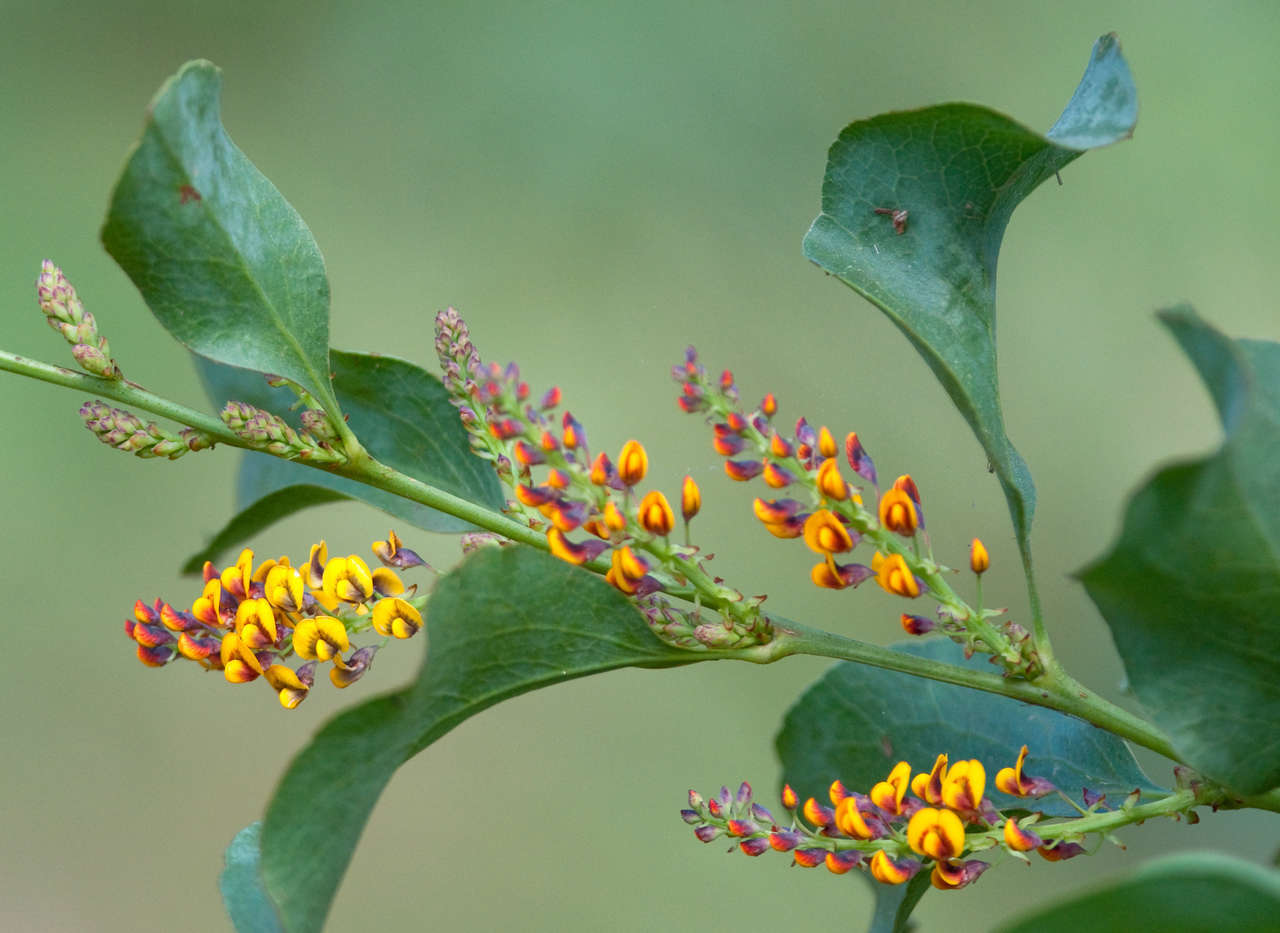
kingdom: Plantae
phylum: Tracheophyta
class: Magnoliopsida
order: Fabales
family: Fabaceae
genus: Daviesia
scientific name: Daviesia latifolia
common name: Hop bitter-pea
